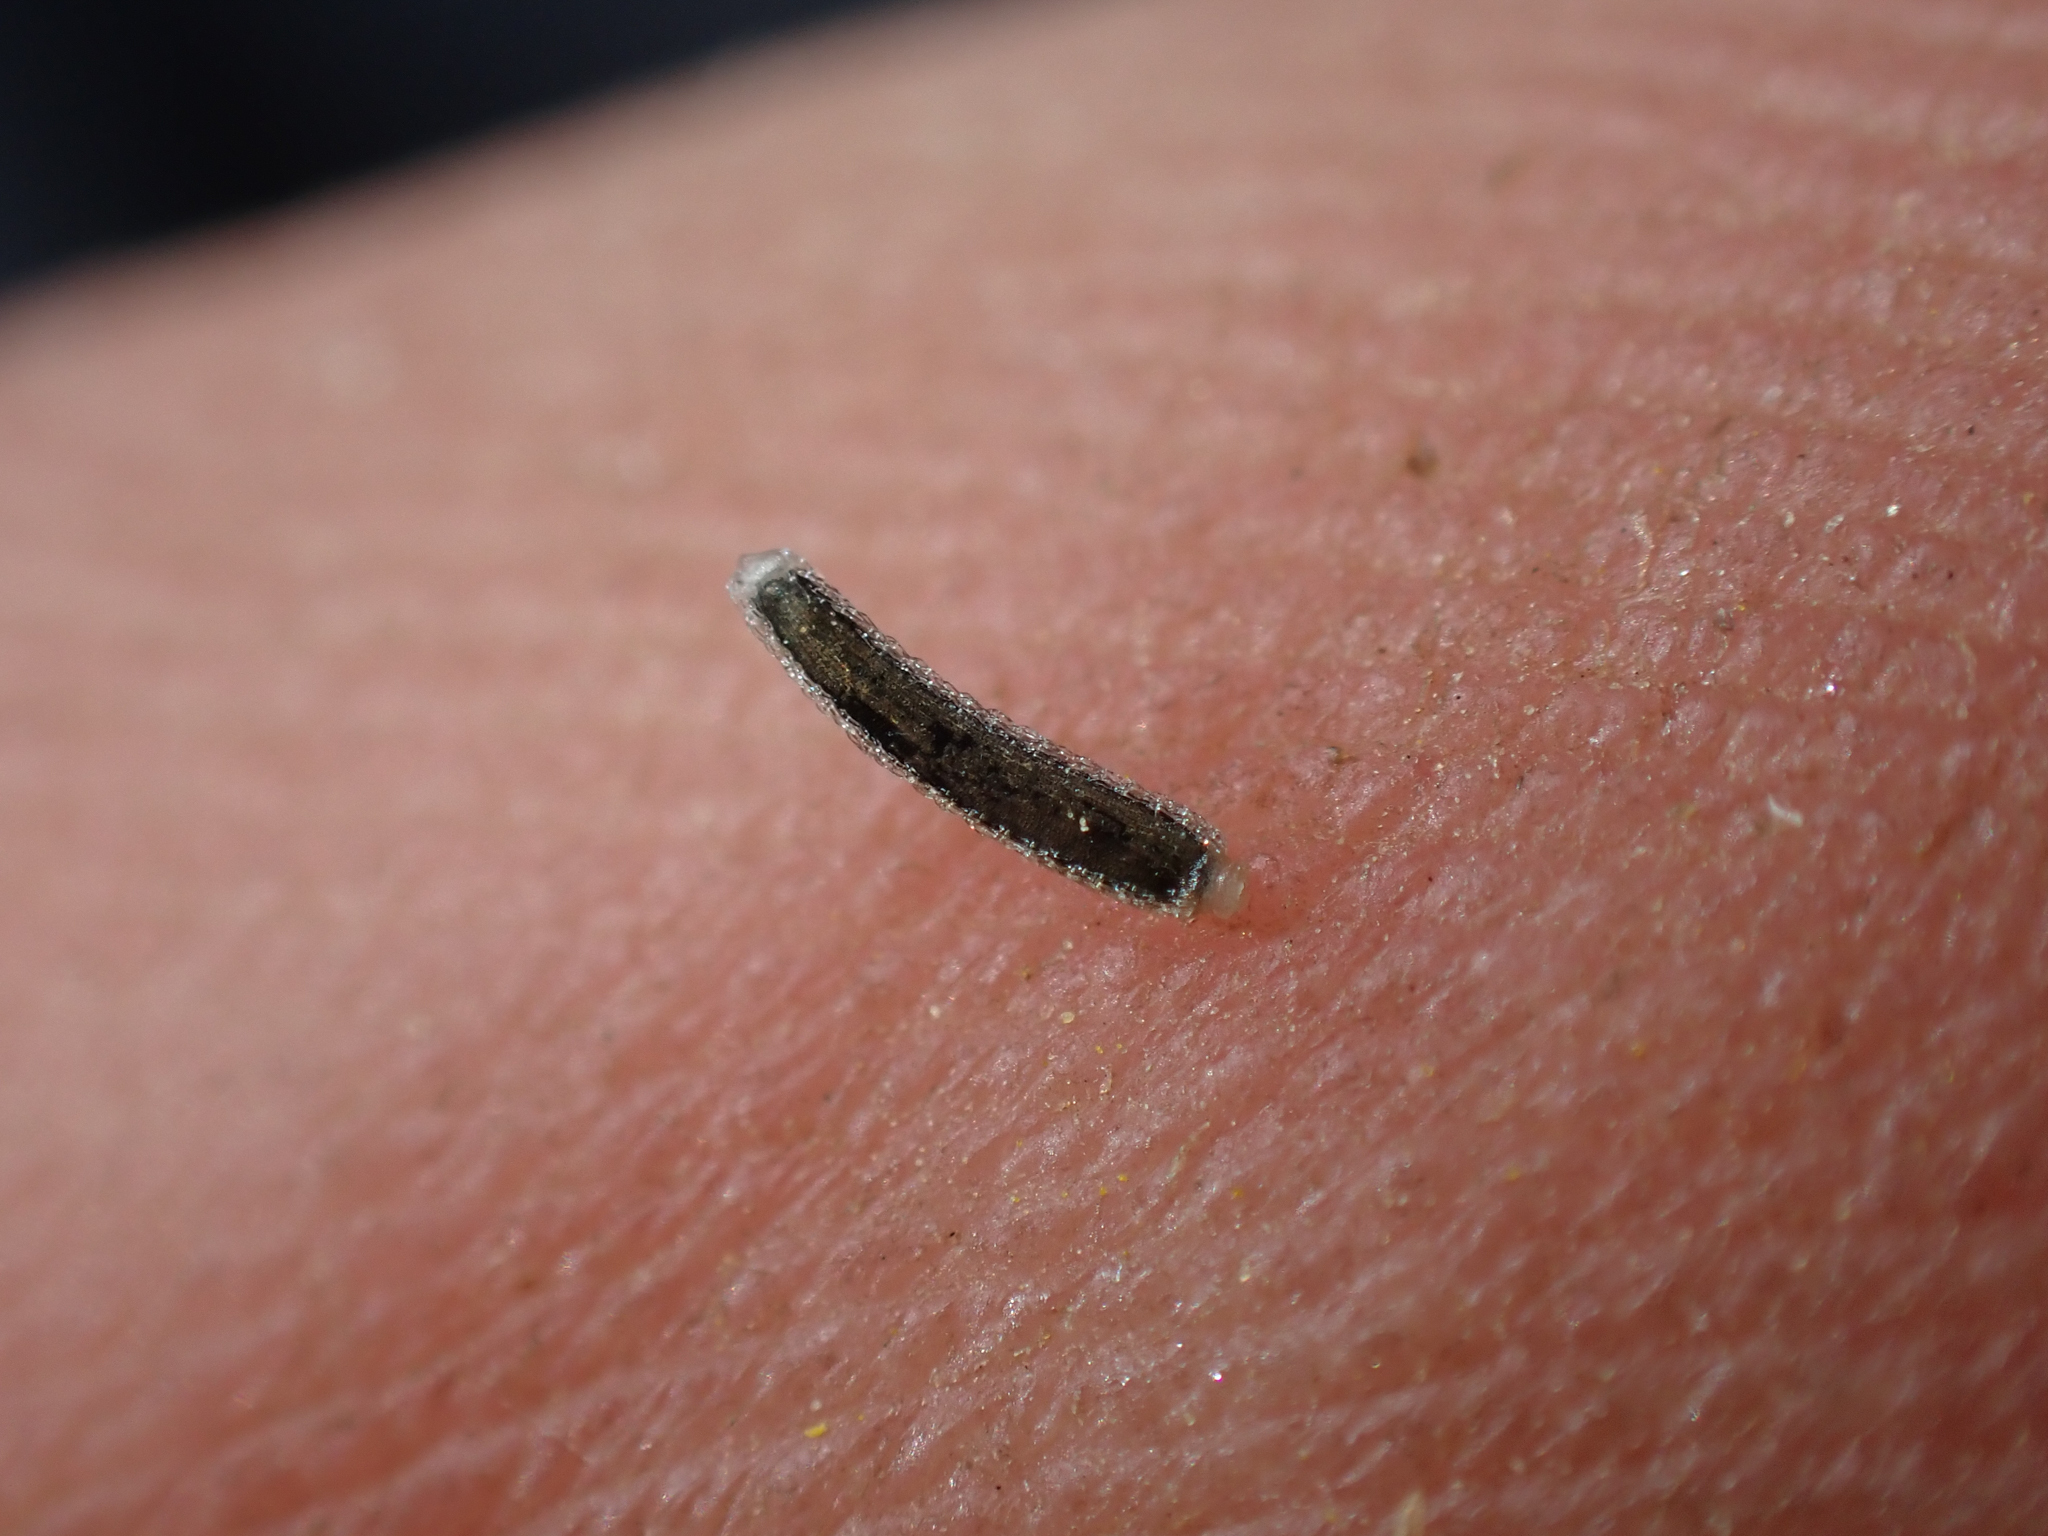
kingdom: Plantae
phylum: Tracheophyta
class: Magnoliopsida
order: Asterales
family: Asteraceae
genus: Perityle
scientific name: Perityle brandegeeana
